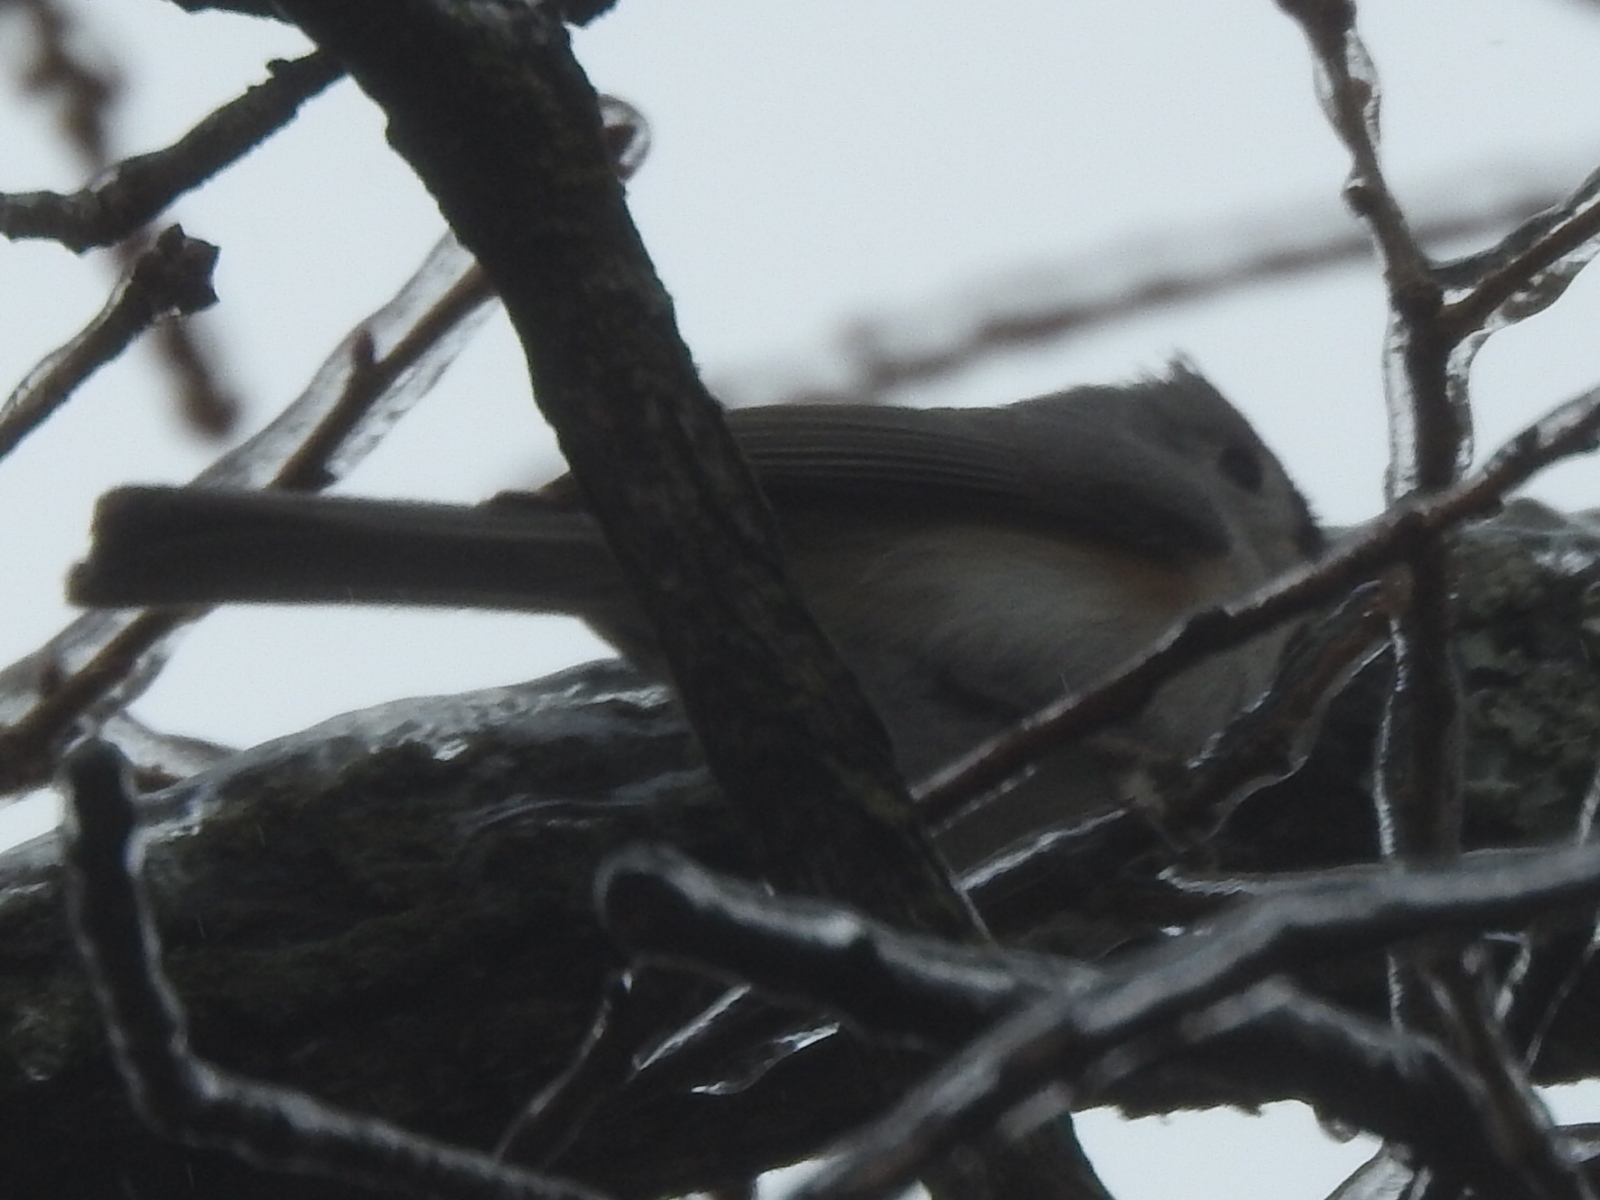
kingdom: Animalia
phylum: Chordata
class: Aves
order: Passeriformes
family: Paridae
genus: Baeolophus
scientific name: Baeolophus bicolor
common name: Tufted titmouse
